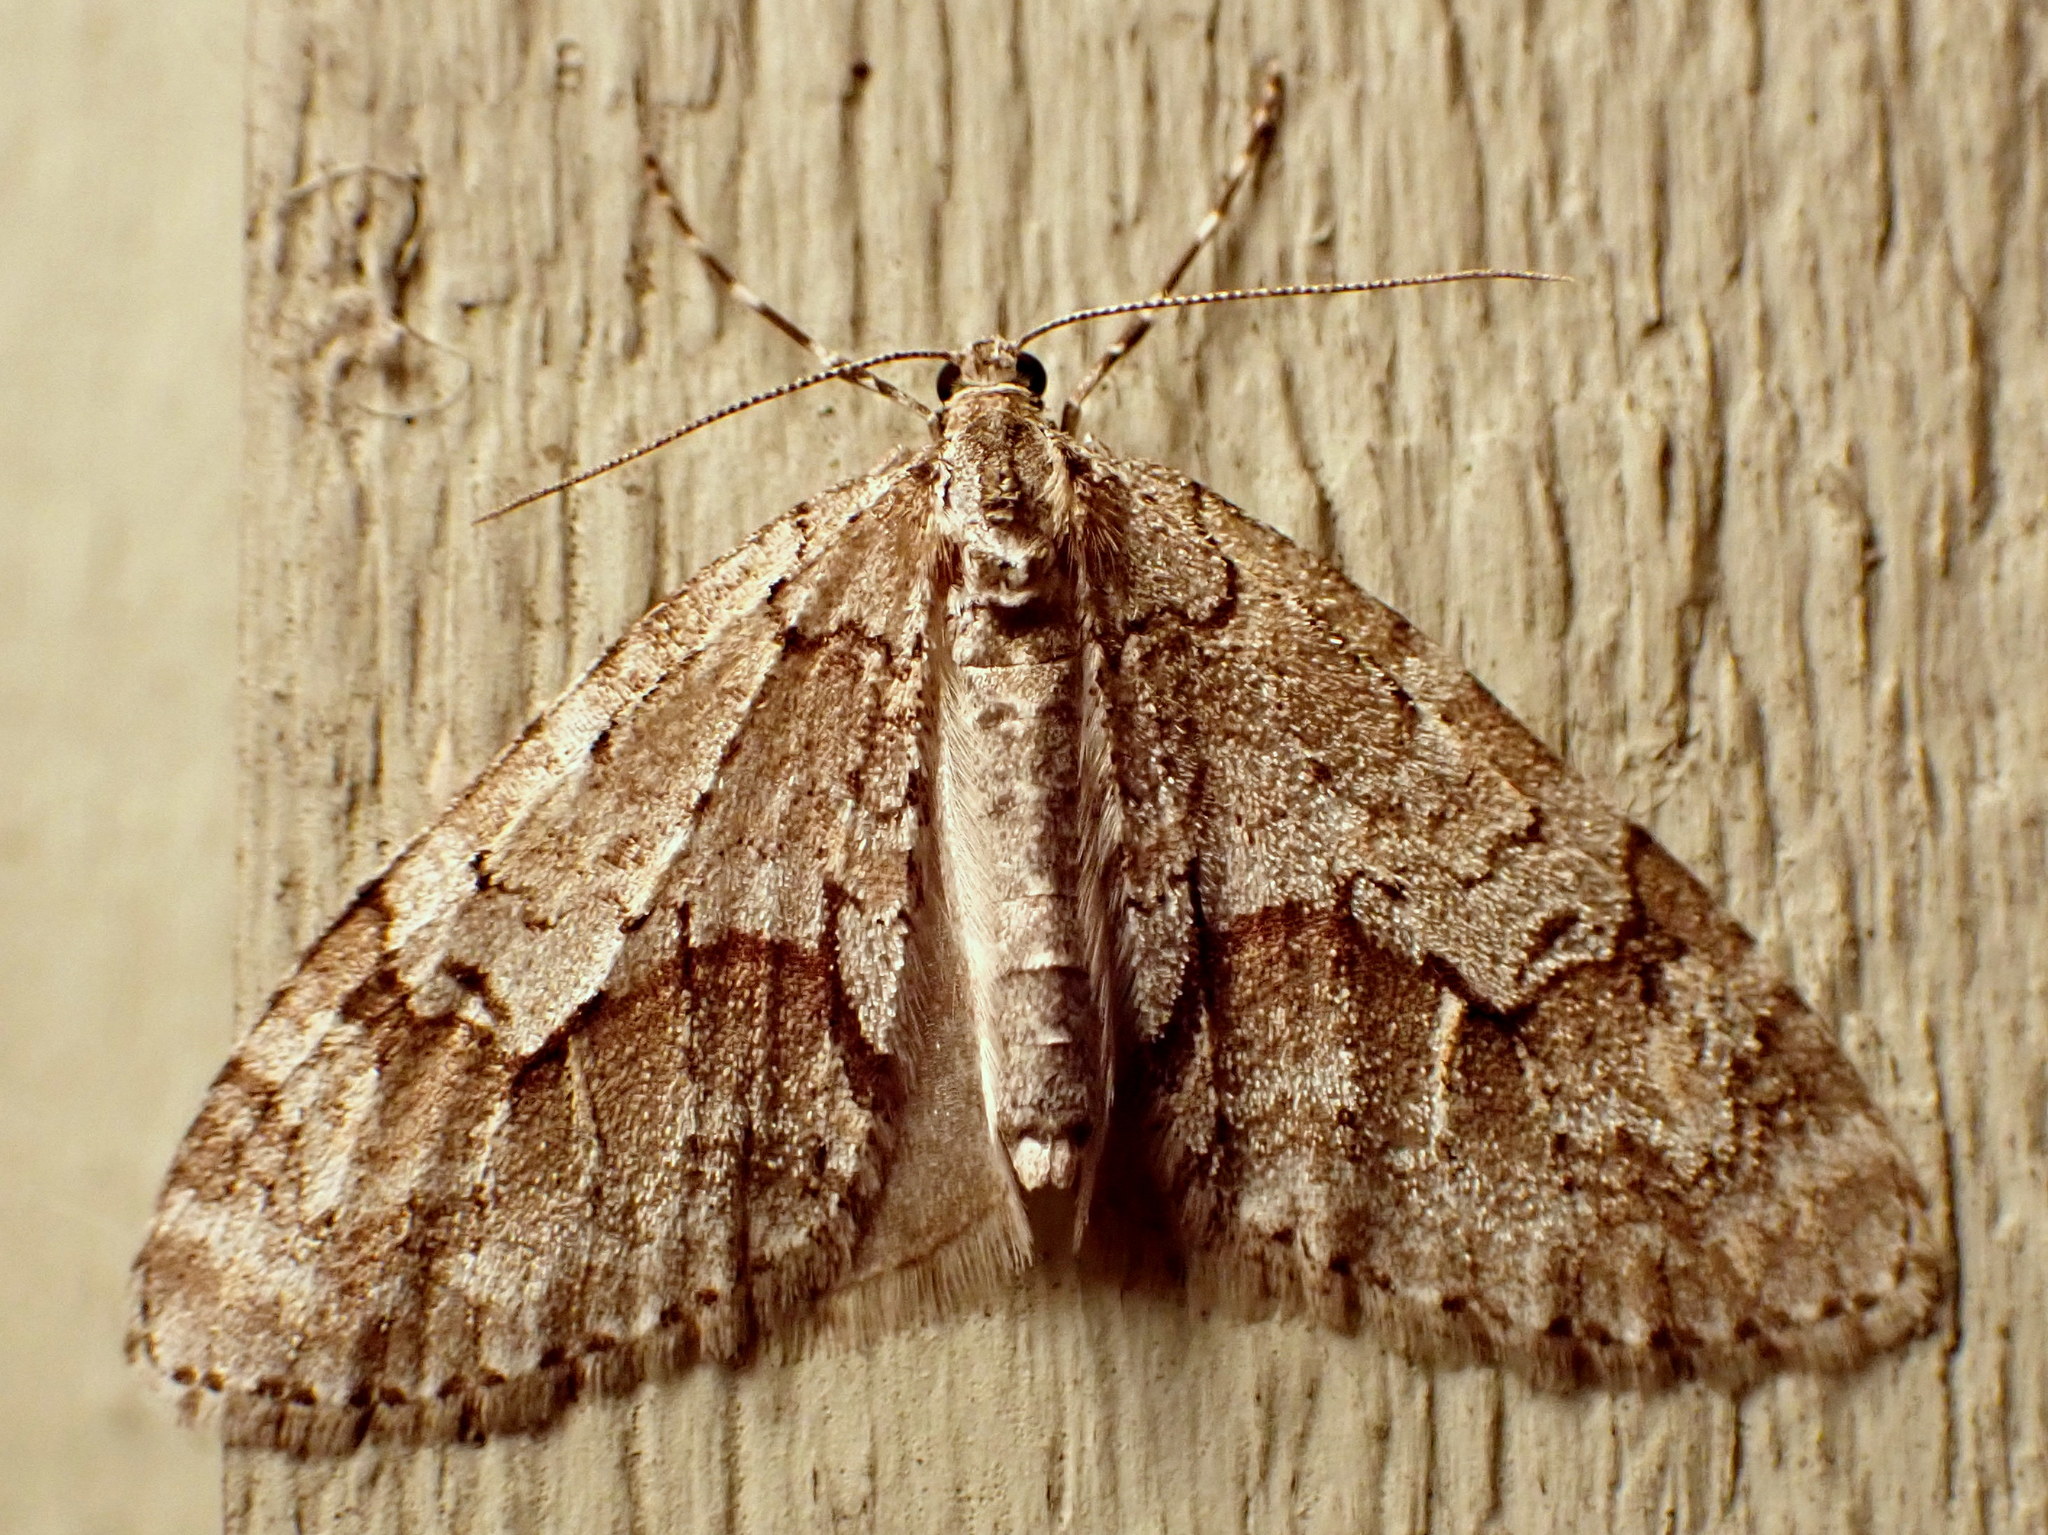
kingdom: Animalia
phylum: Arthropoda
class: Insecta
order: Lepidoptera
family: Geometridae
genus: Cladara
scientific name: Cladara limitaria
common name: Mottled gray carpet
